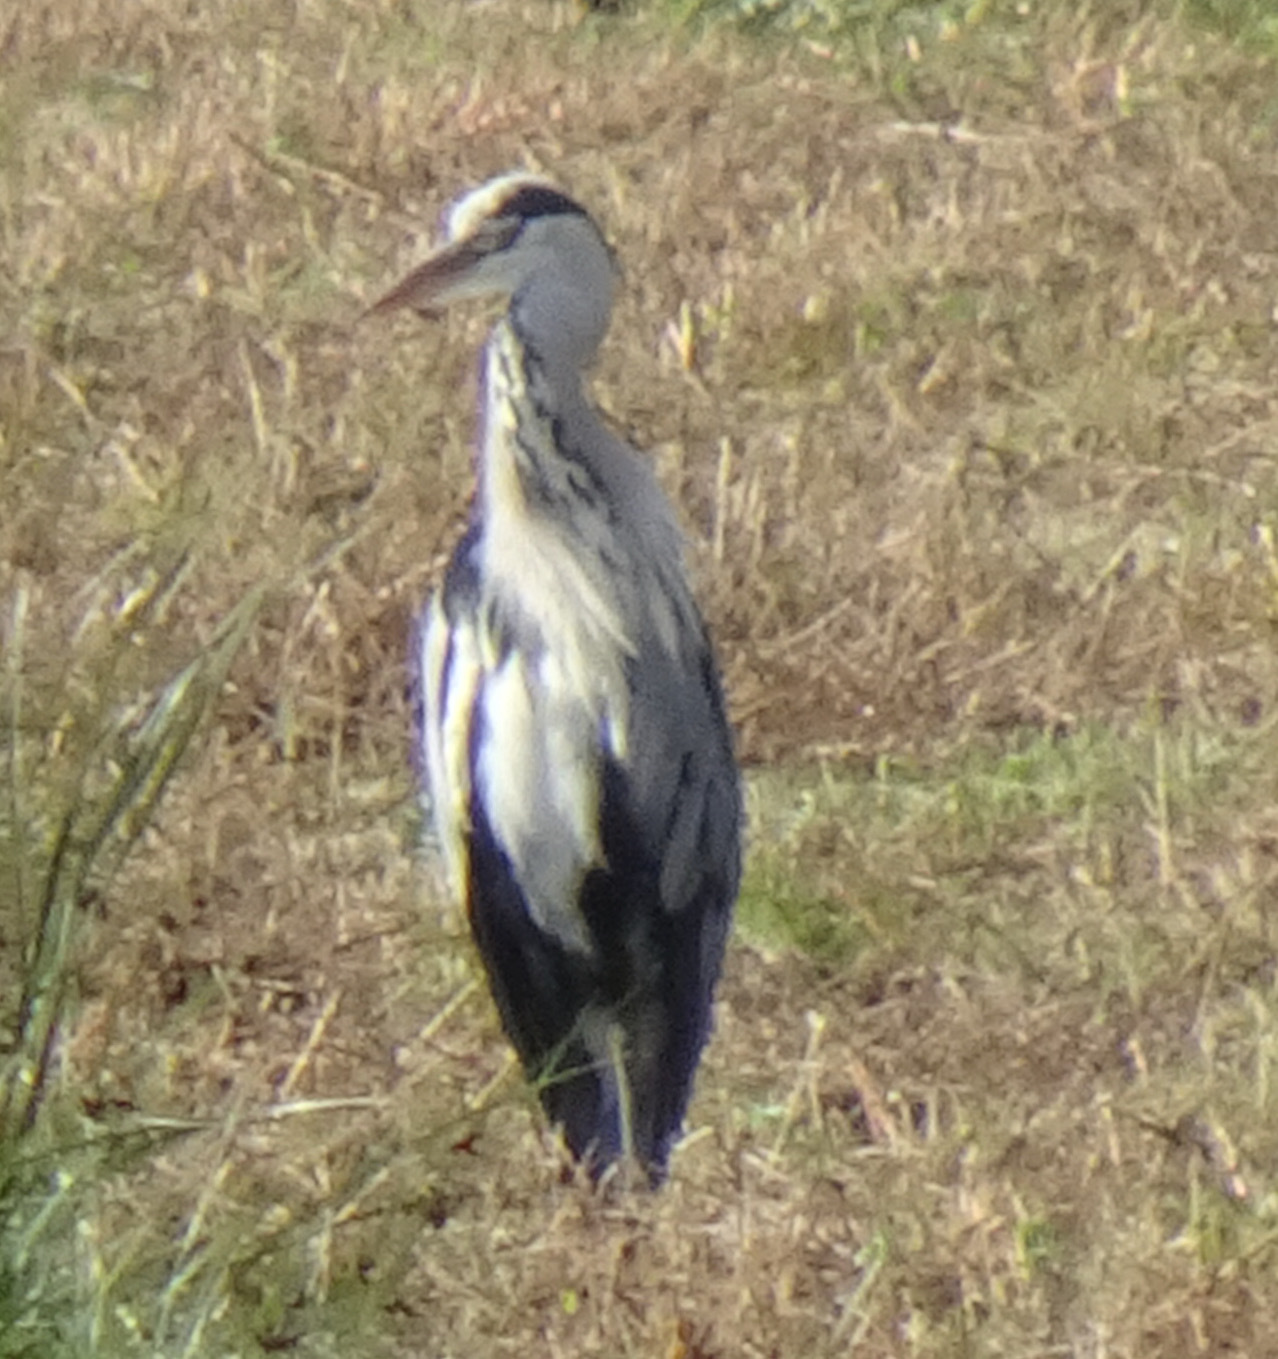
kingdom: Animalia
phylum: Chordata
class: Aves
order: Pelecaniformes
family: Ardeidae
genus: Ardea
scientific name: Ardea cinerea
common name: Grey heron
